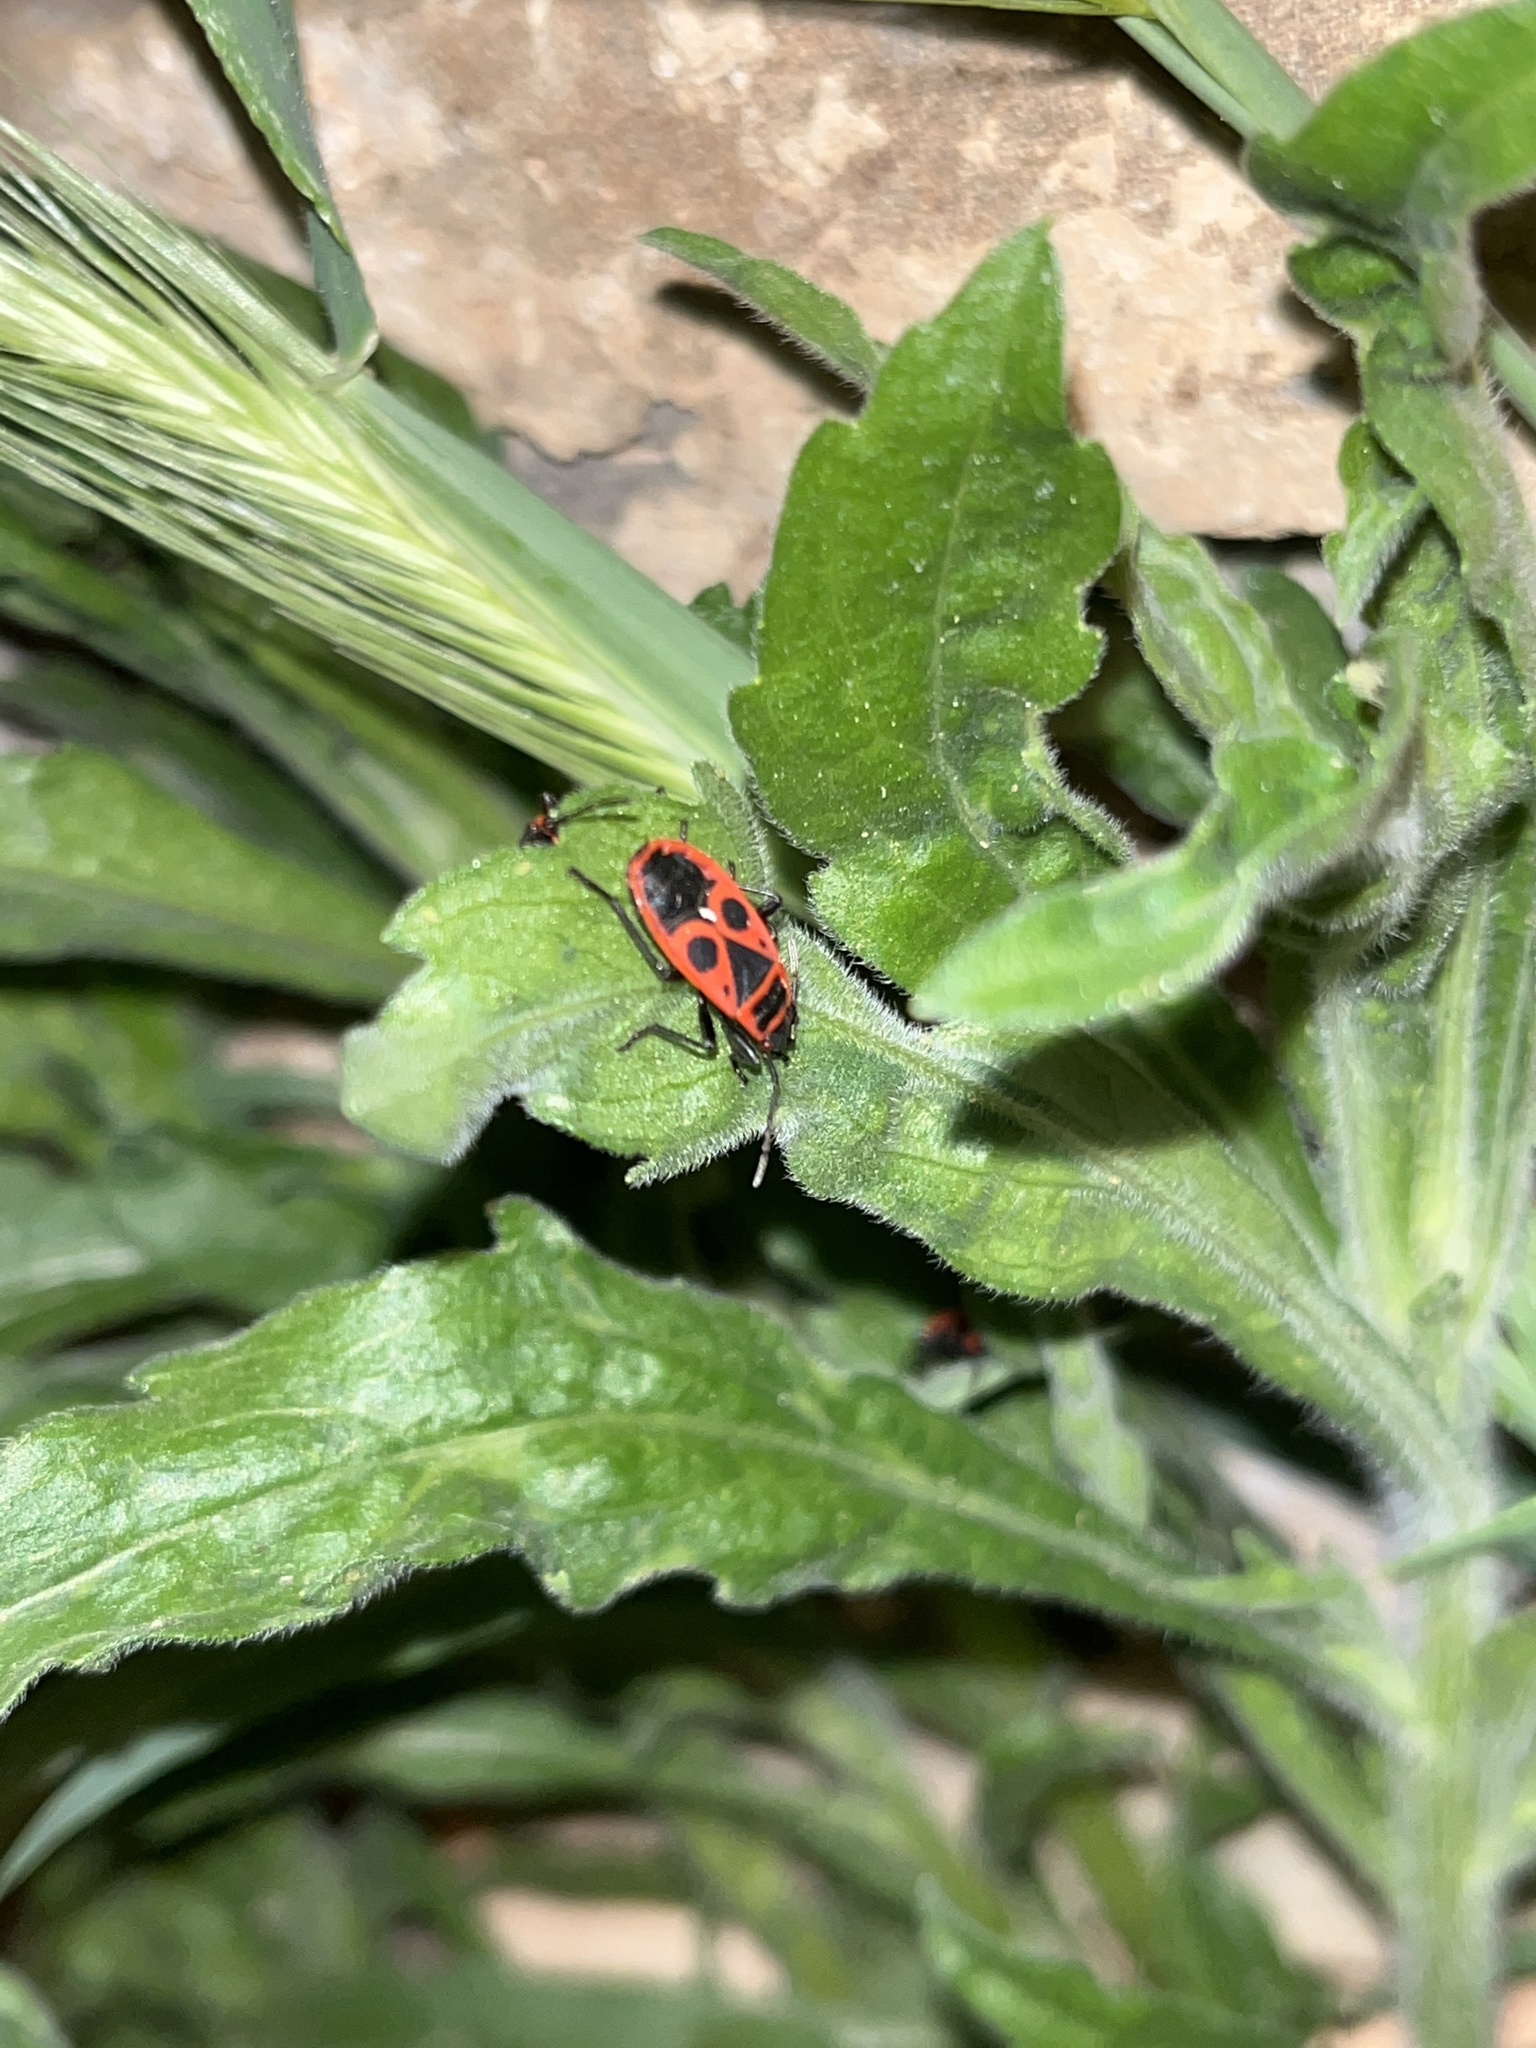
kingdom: Animalia
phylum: Arthropoda
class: Insecta
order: Hemiptera
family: Pyrrhocoridae
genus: Pyrrhocoris
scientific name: Pyrrhocoris apterus
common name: Firebug
